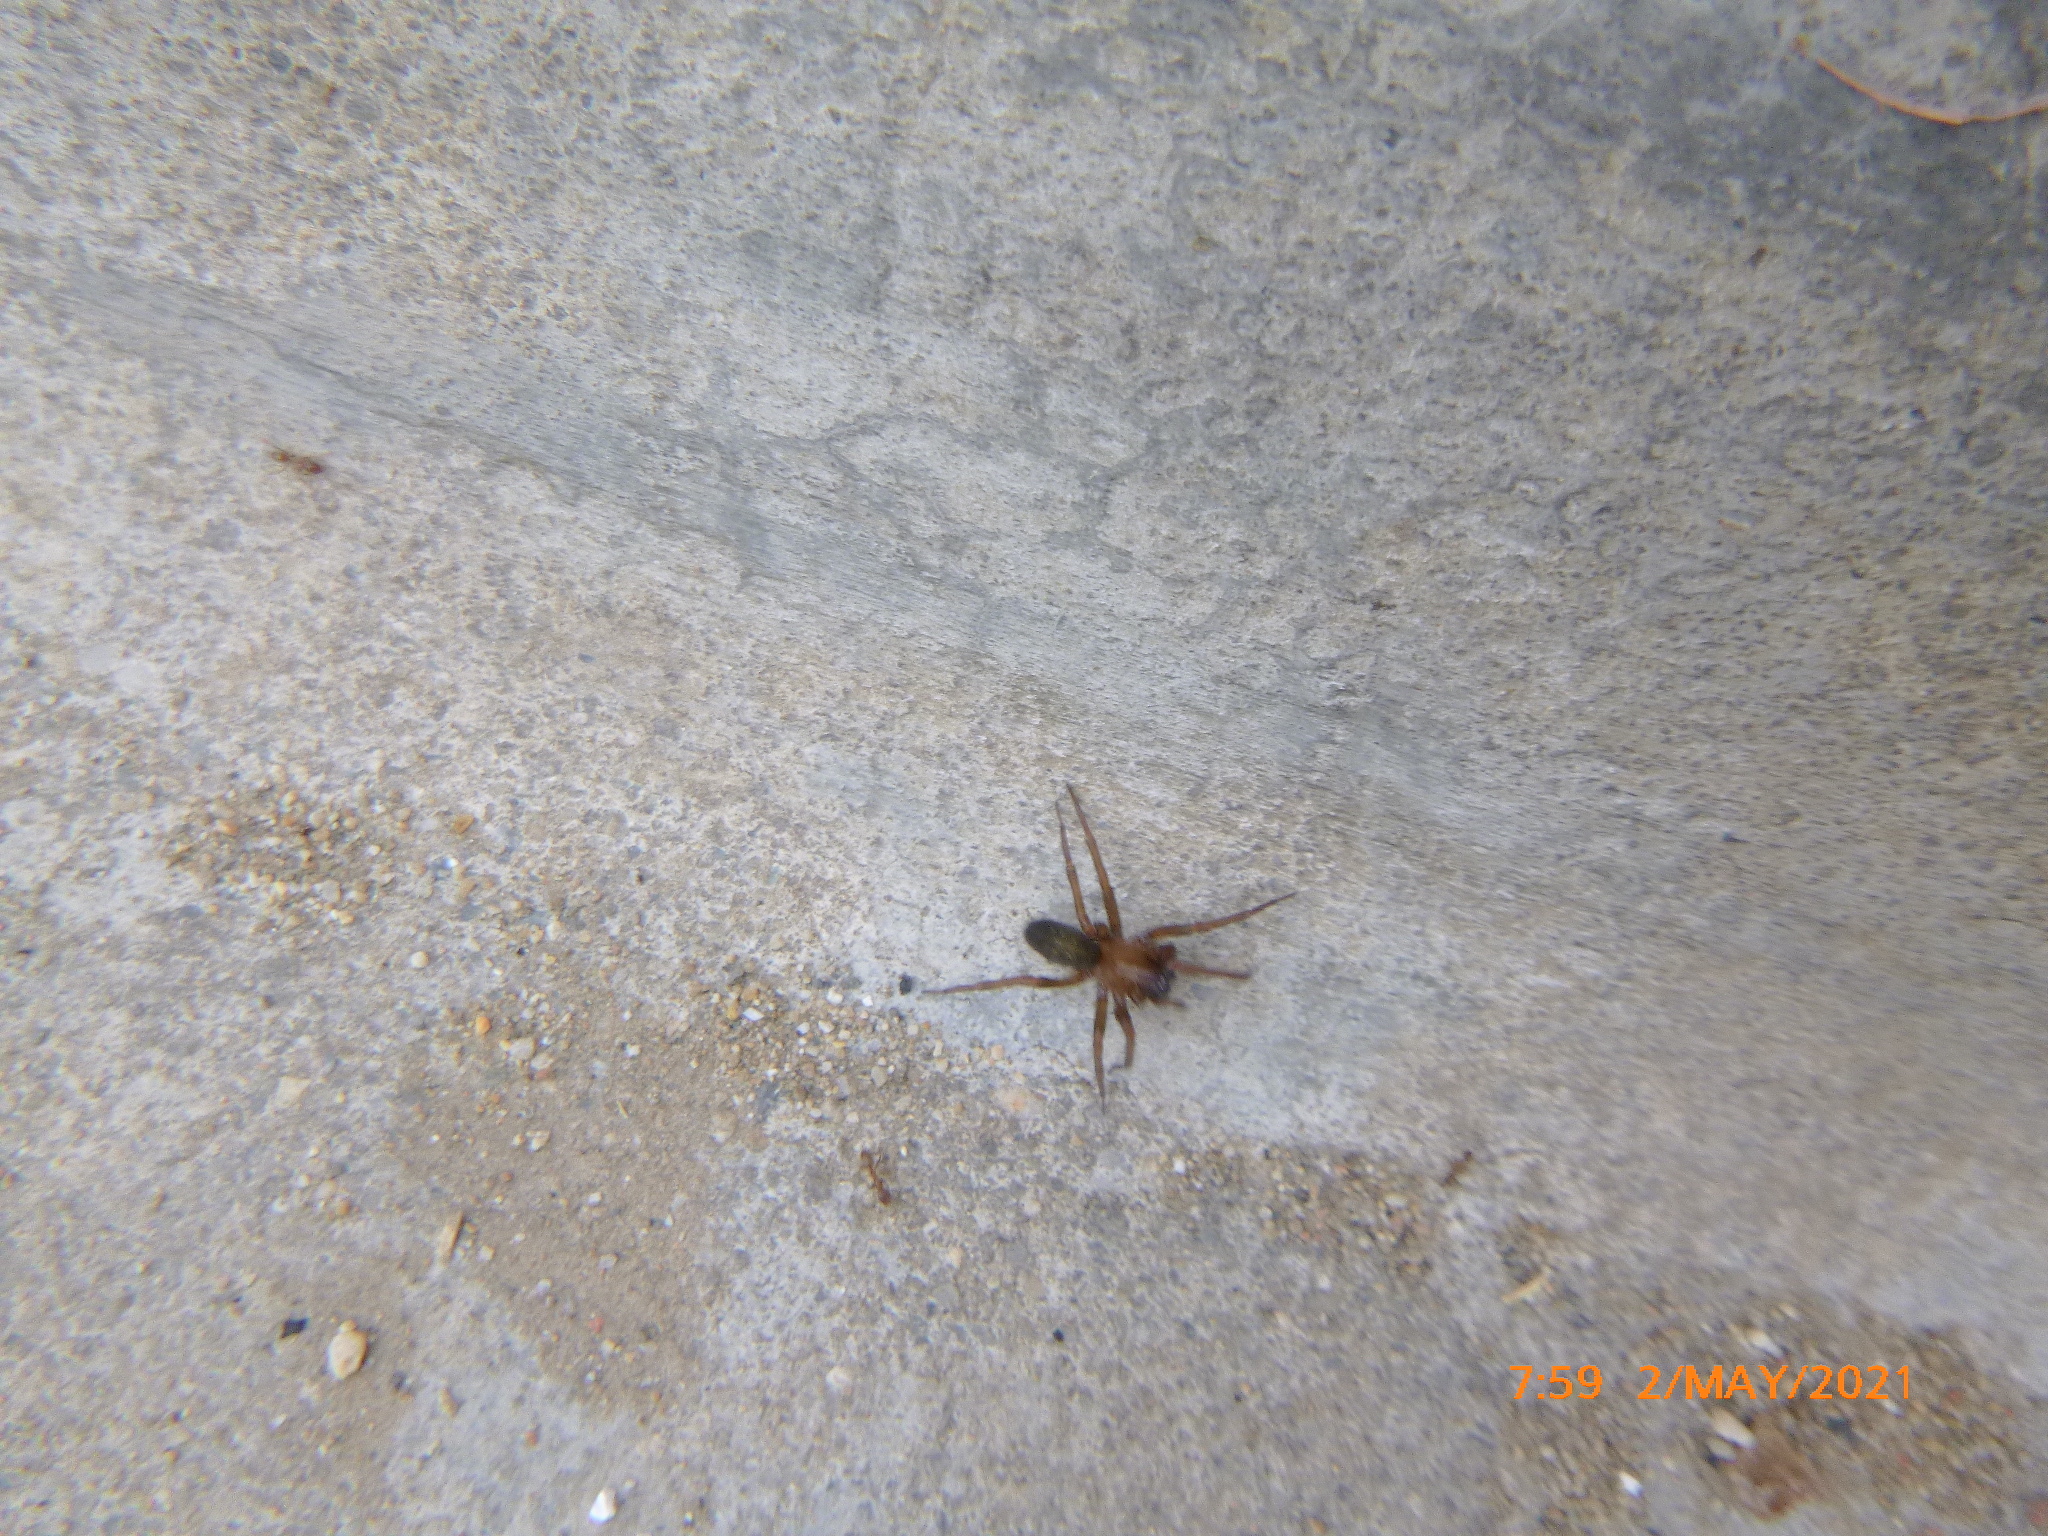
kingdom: Animalia
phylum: Arthropoda
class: Arachnida
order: Araneae
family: Desidae
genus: Metaltella
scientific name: Metaltella simoni
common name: Cribellate spider
